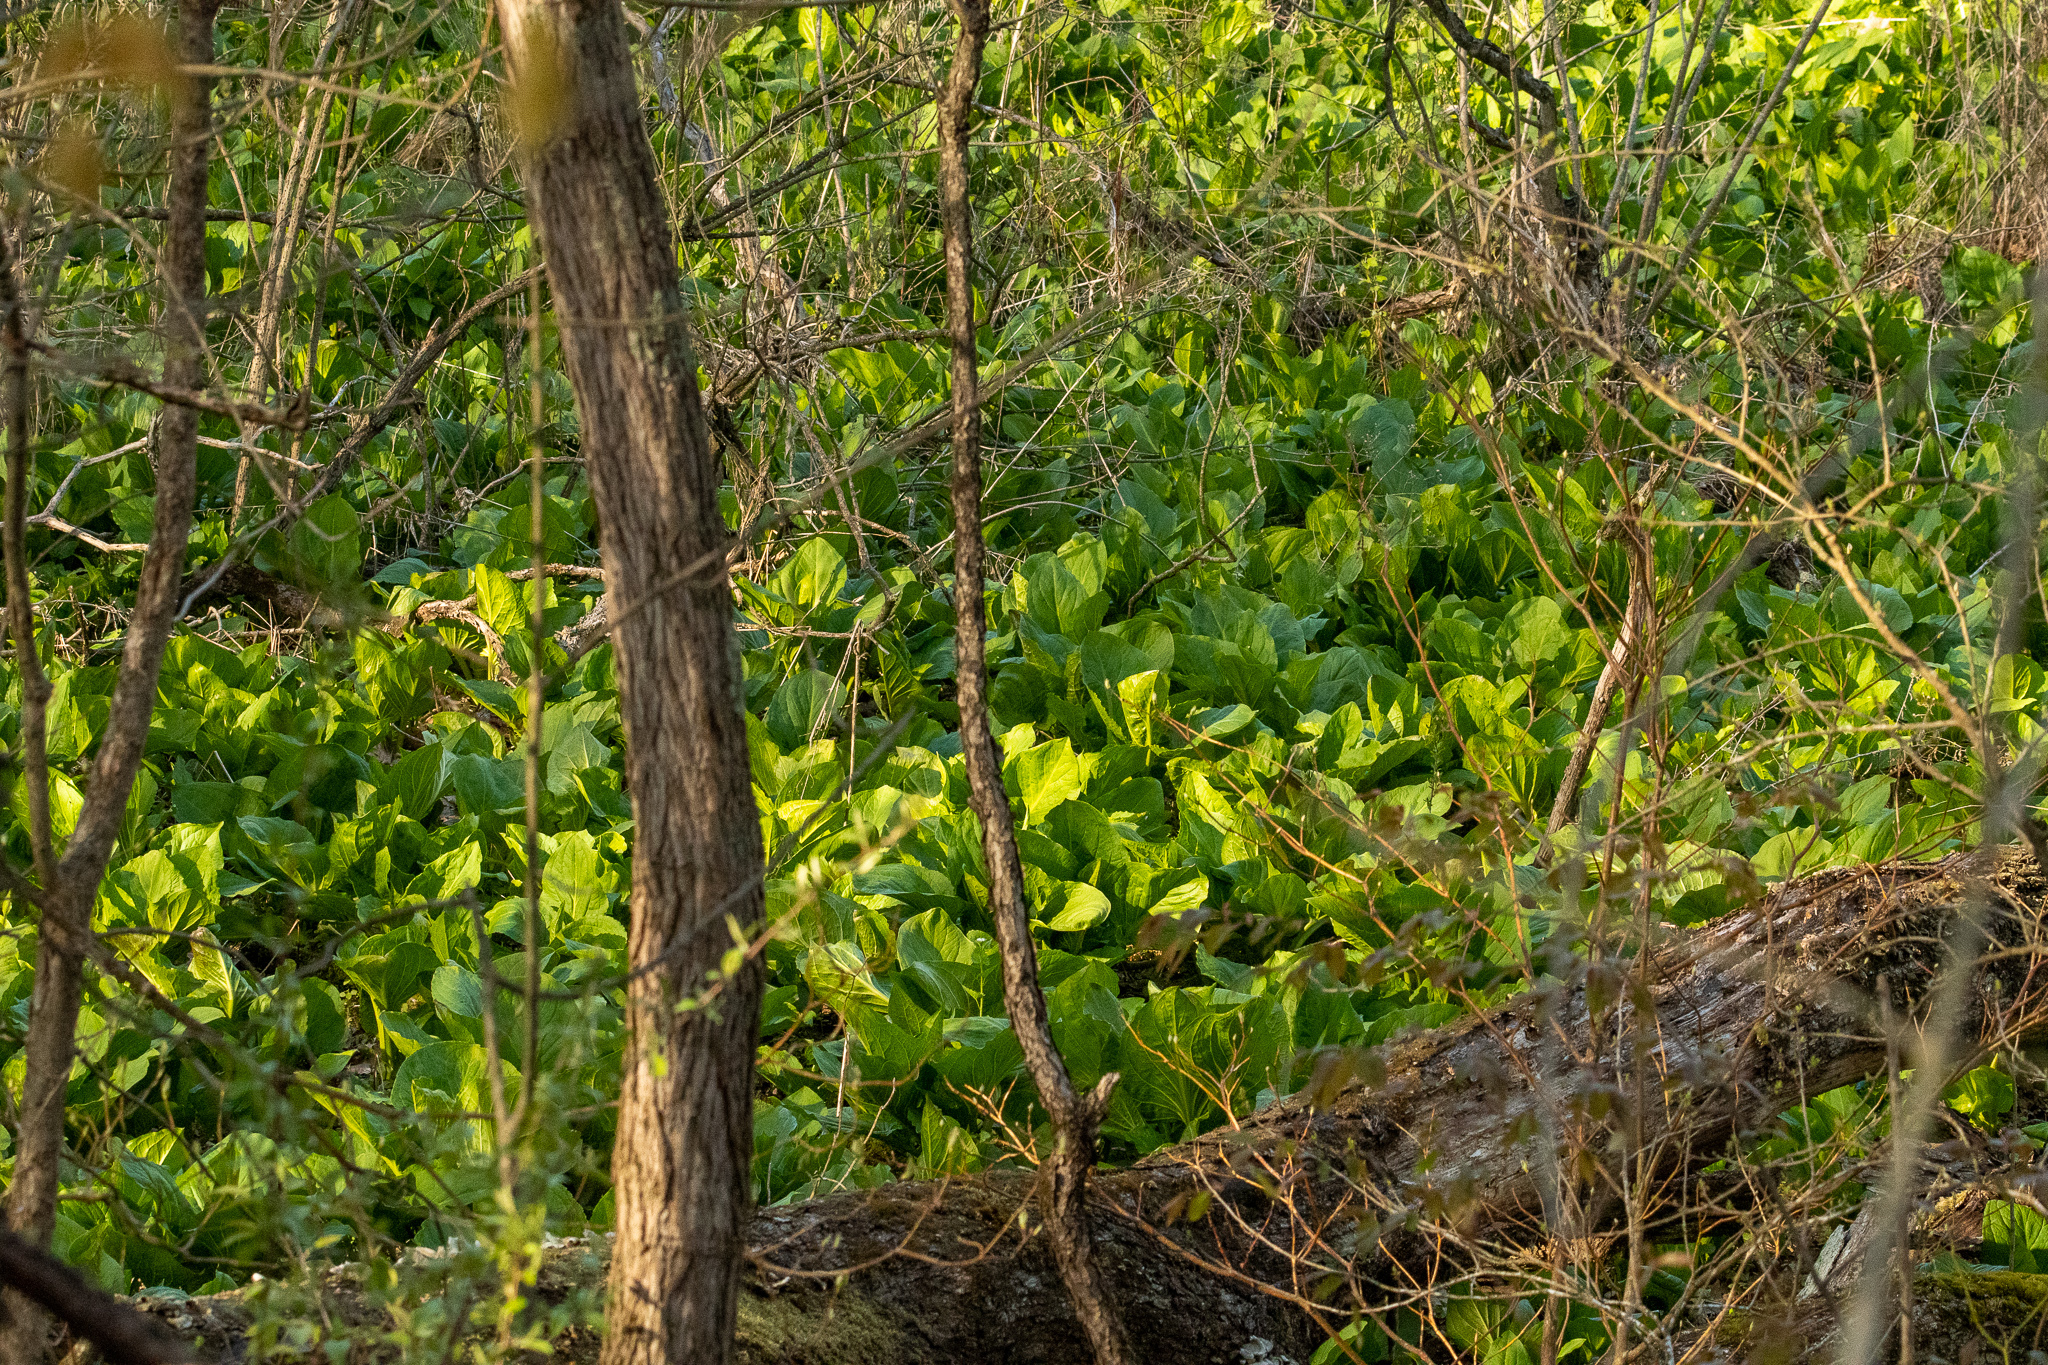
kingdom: Plantae
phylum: Tracheophyta
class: Liliopsida
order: Alismatales
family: Araceae
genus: Symplocarpus
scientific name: Symplocarpus foetidus
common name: Eastern skunk cabbage
